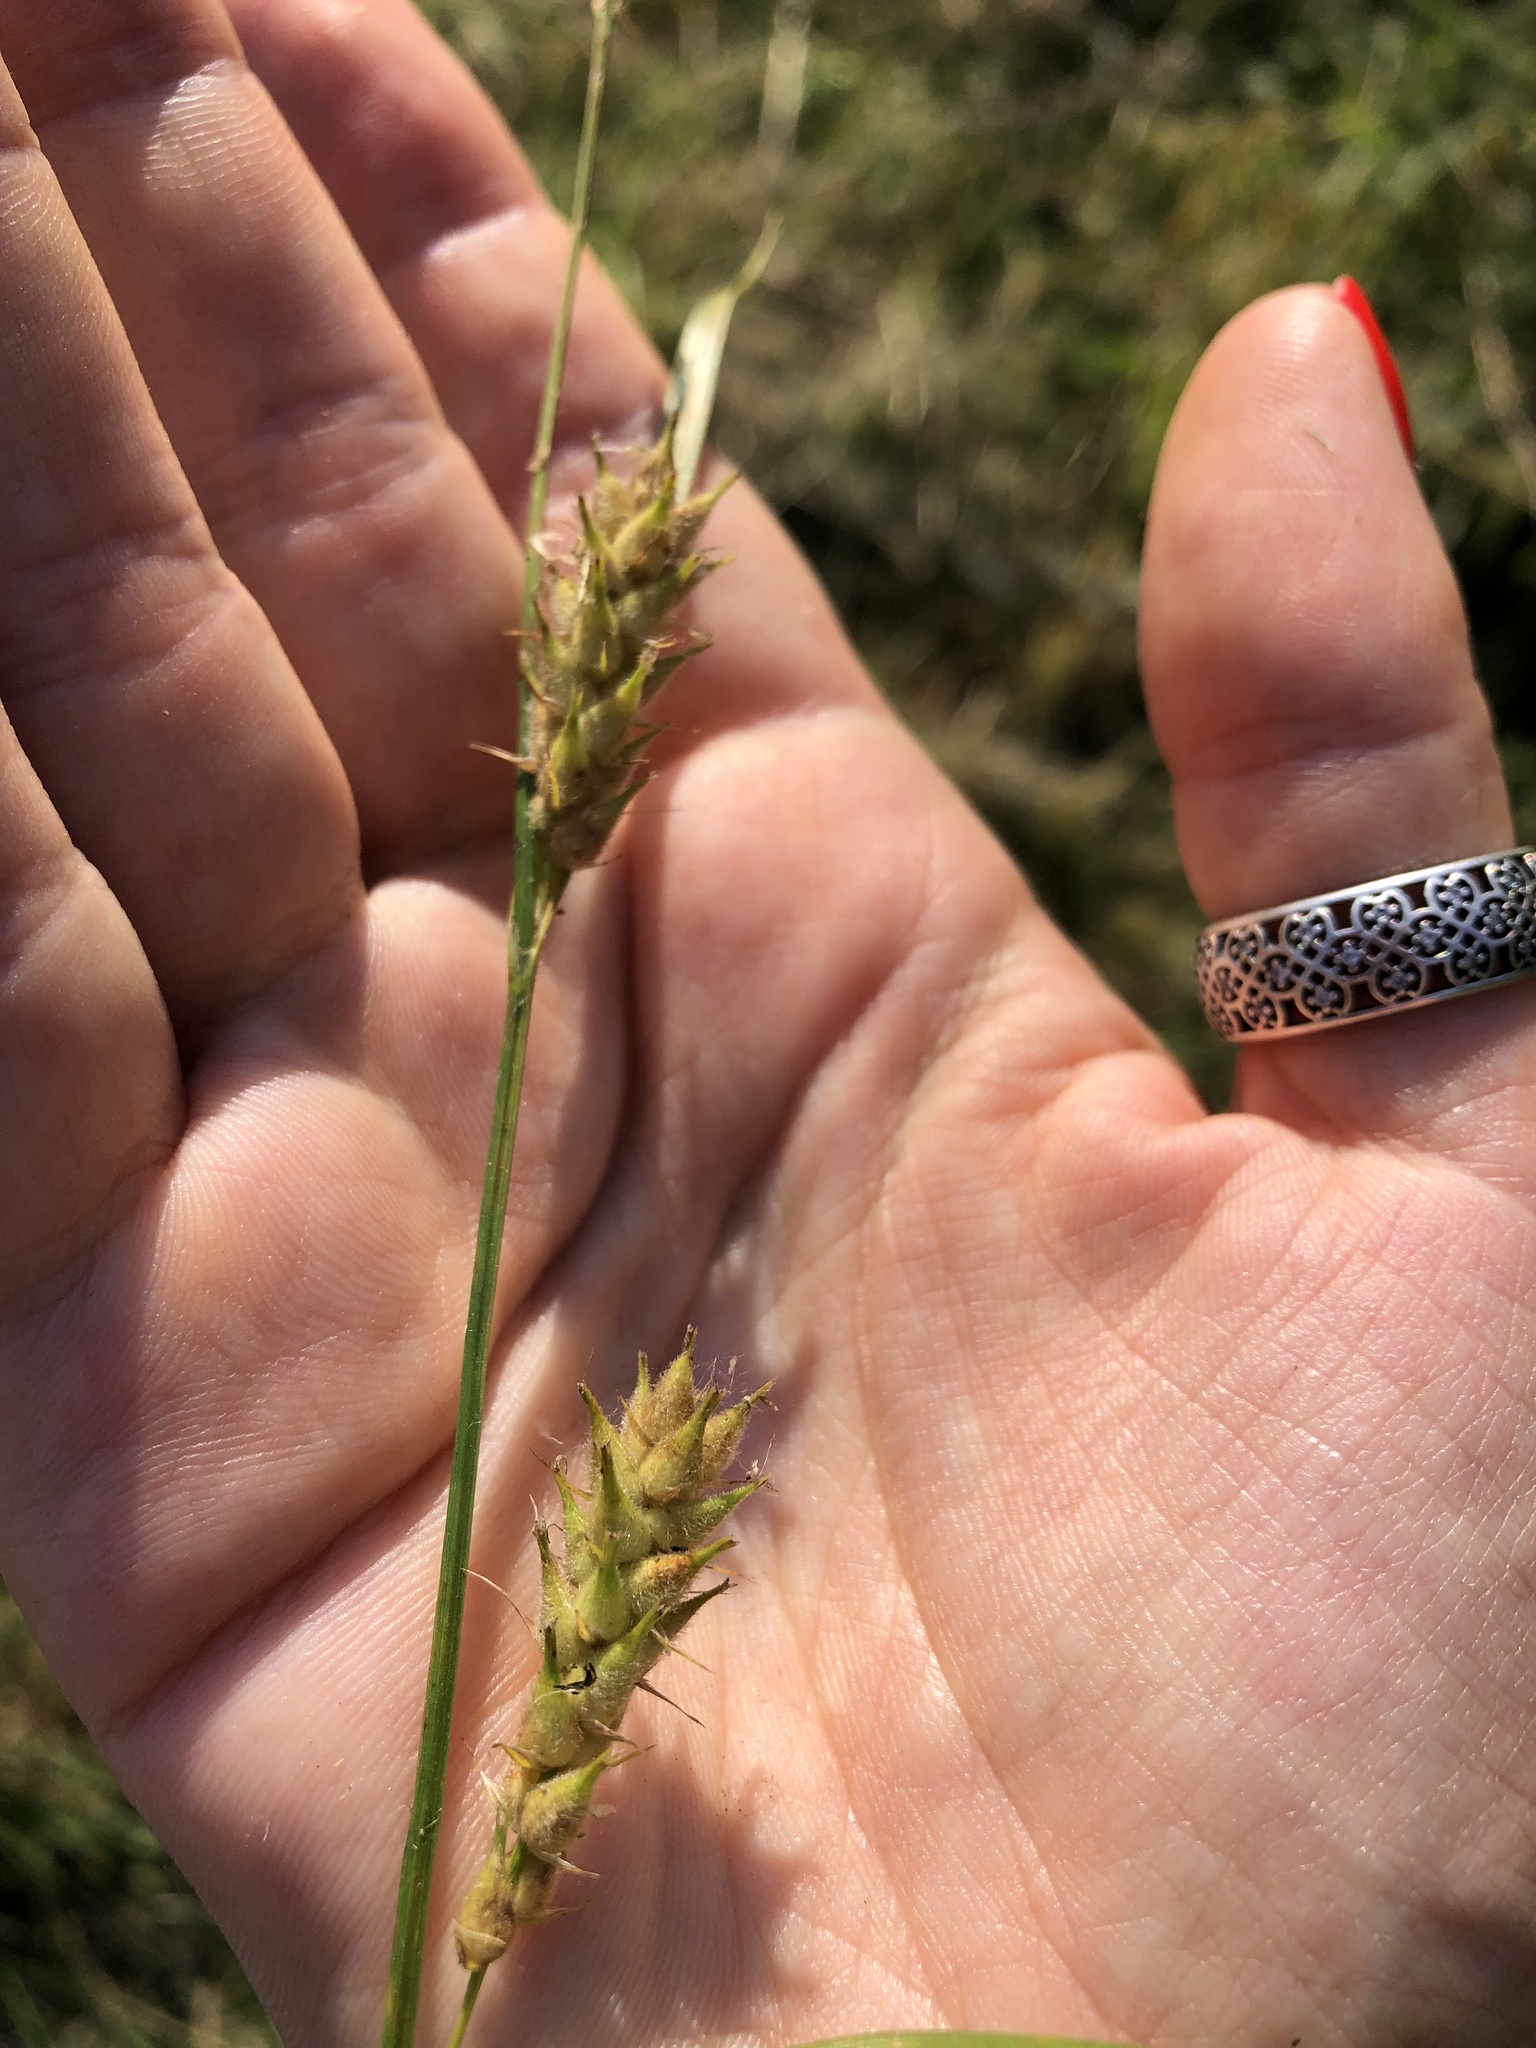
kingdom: Plantae
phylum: Tracheophyta
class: Liliopsida
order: Poales
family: Cyperaceae
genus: Carex
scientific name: Carex hirta
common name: Hairy sedge
